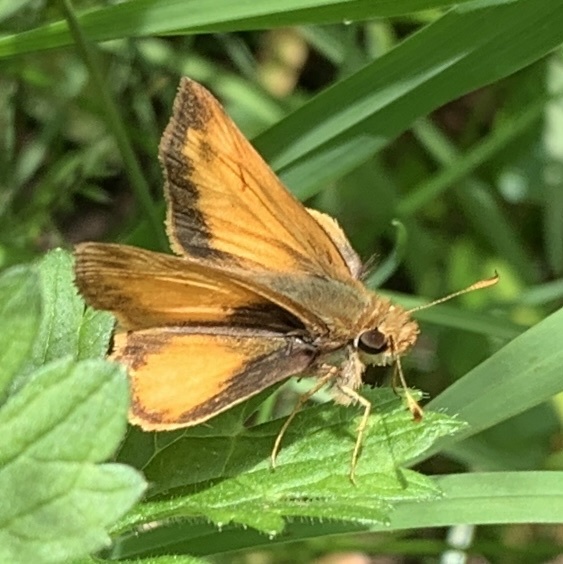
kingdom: Animalia
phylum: Arthropoda
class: Insecta
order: Lepidoptera
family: Hesperiidae
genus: Lon
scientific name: Lon zabulon
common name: Zabulon skipper
